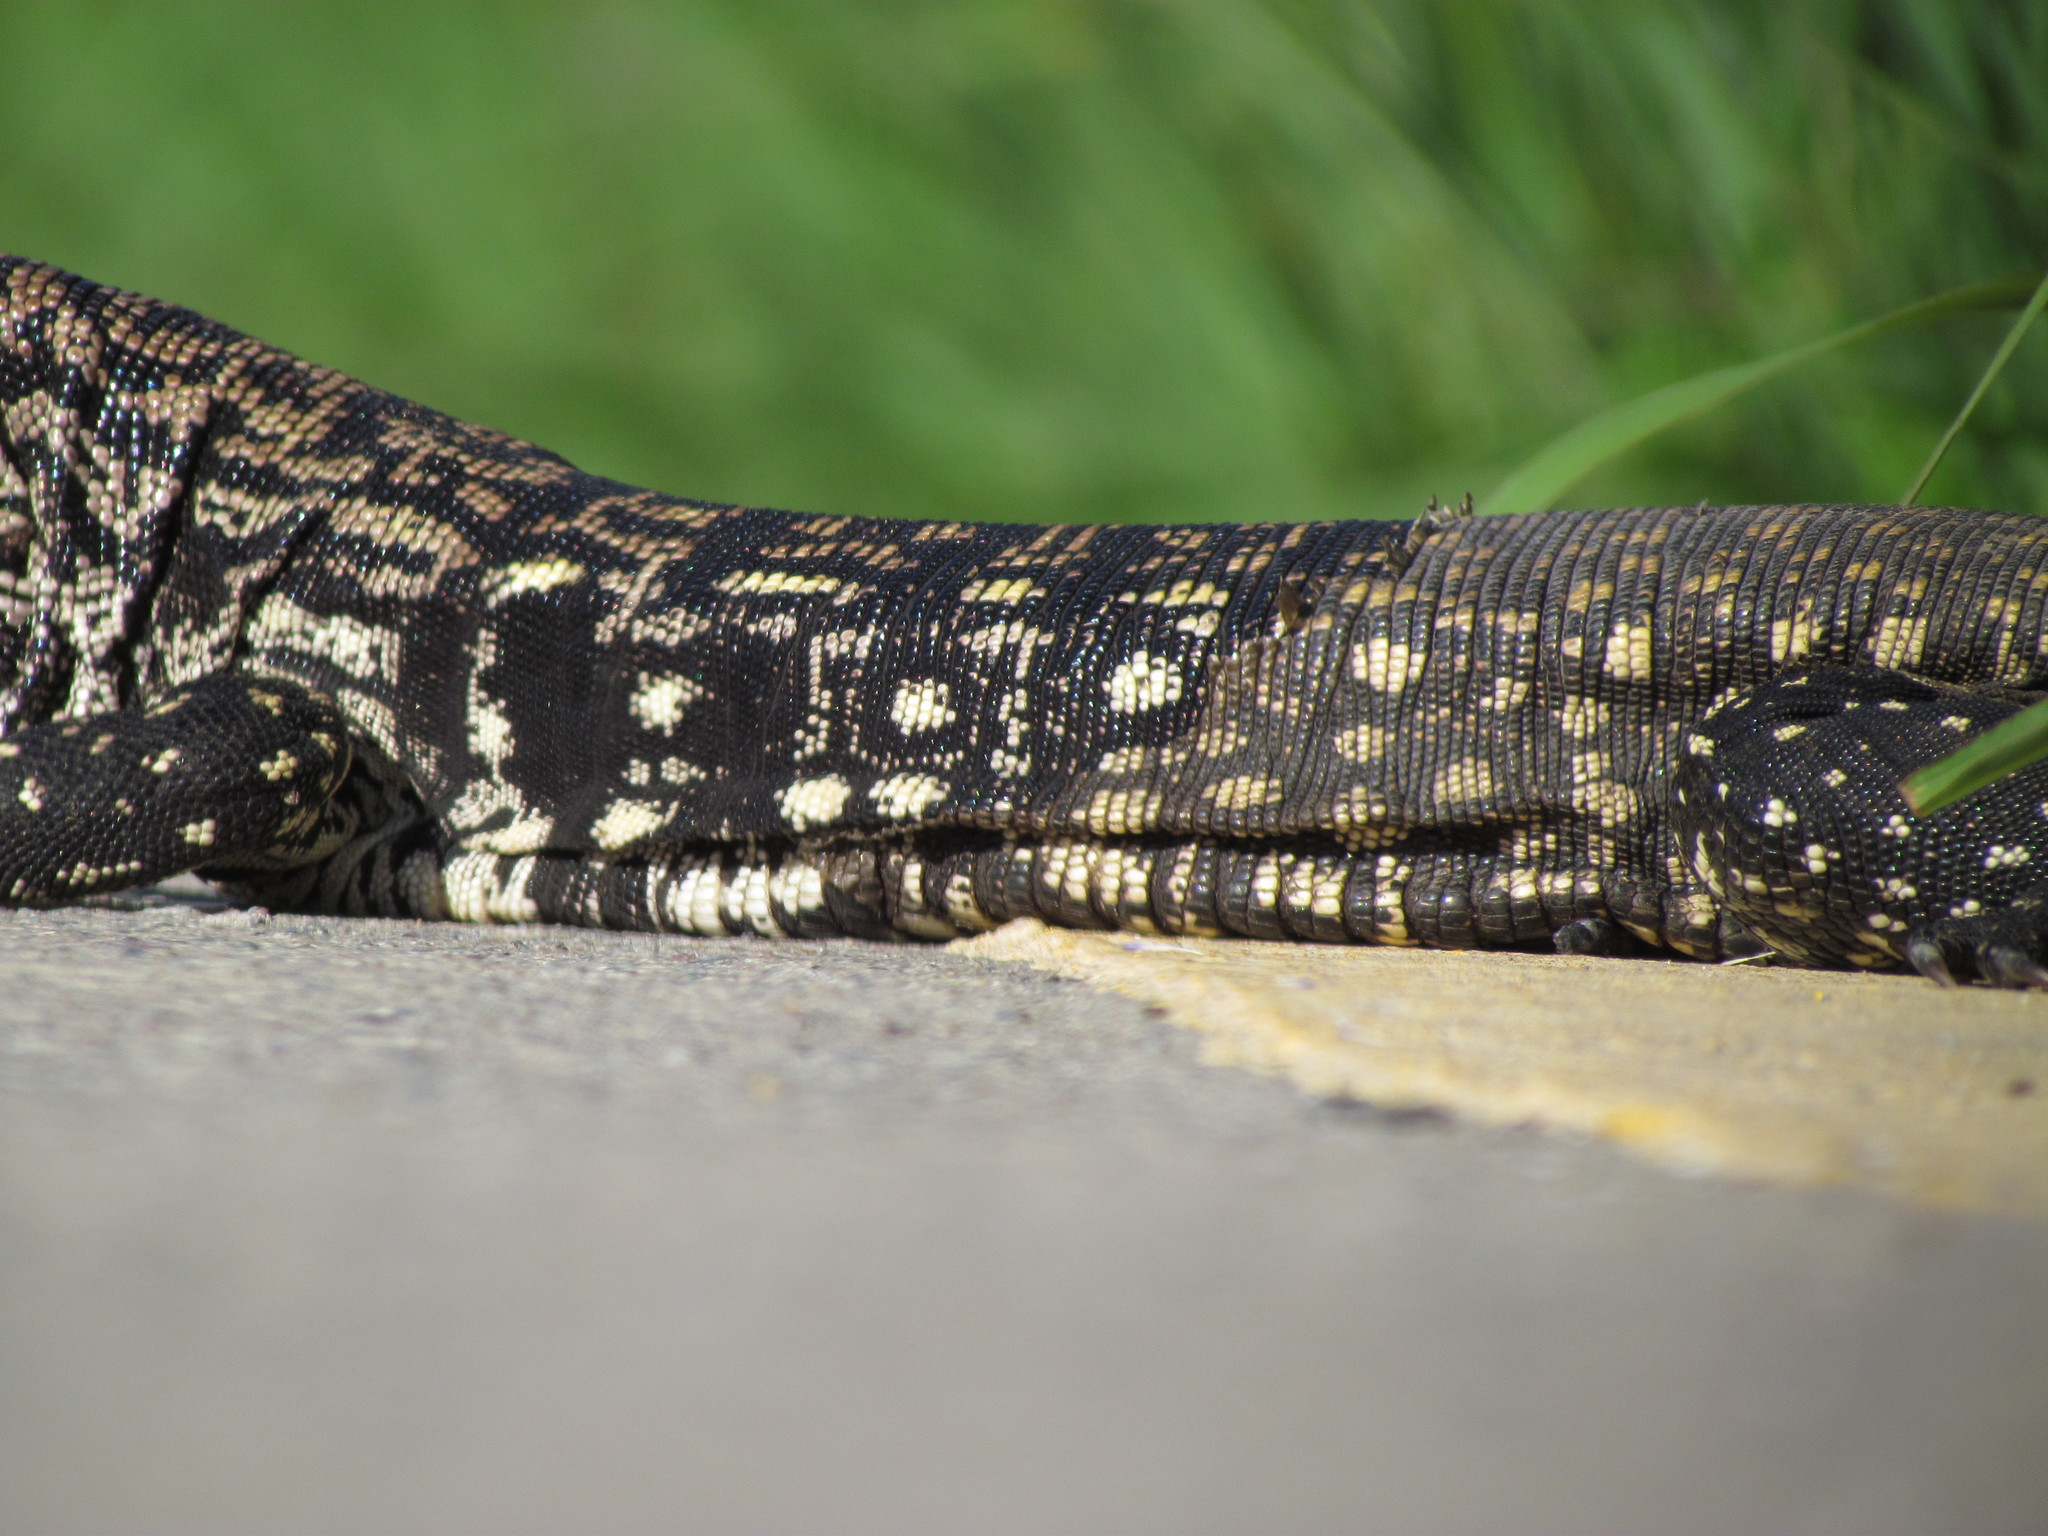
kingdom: Animalia
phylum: Chordata
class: Squamata
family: Teiidae
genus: Salvator
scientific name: Salvator merianae
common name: Argentine black and white tegu
